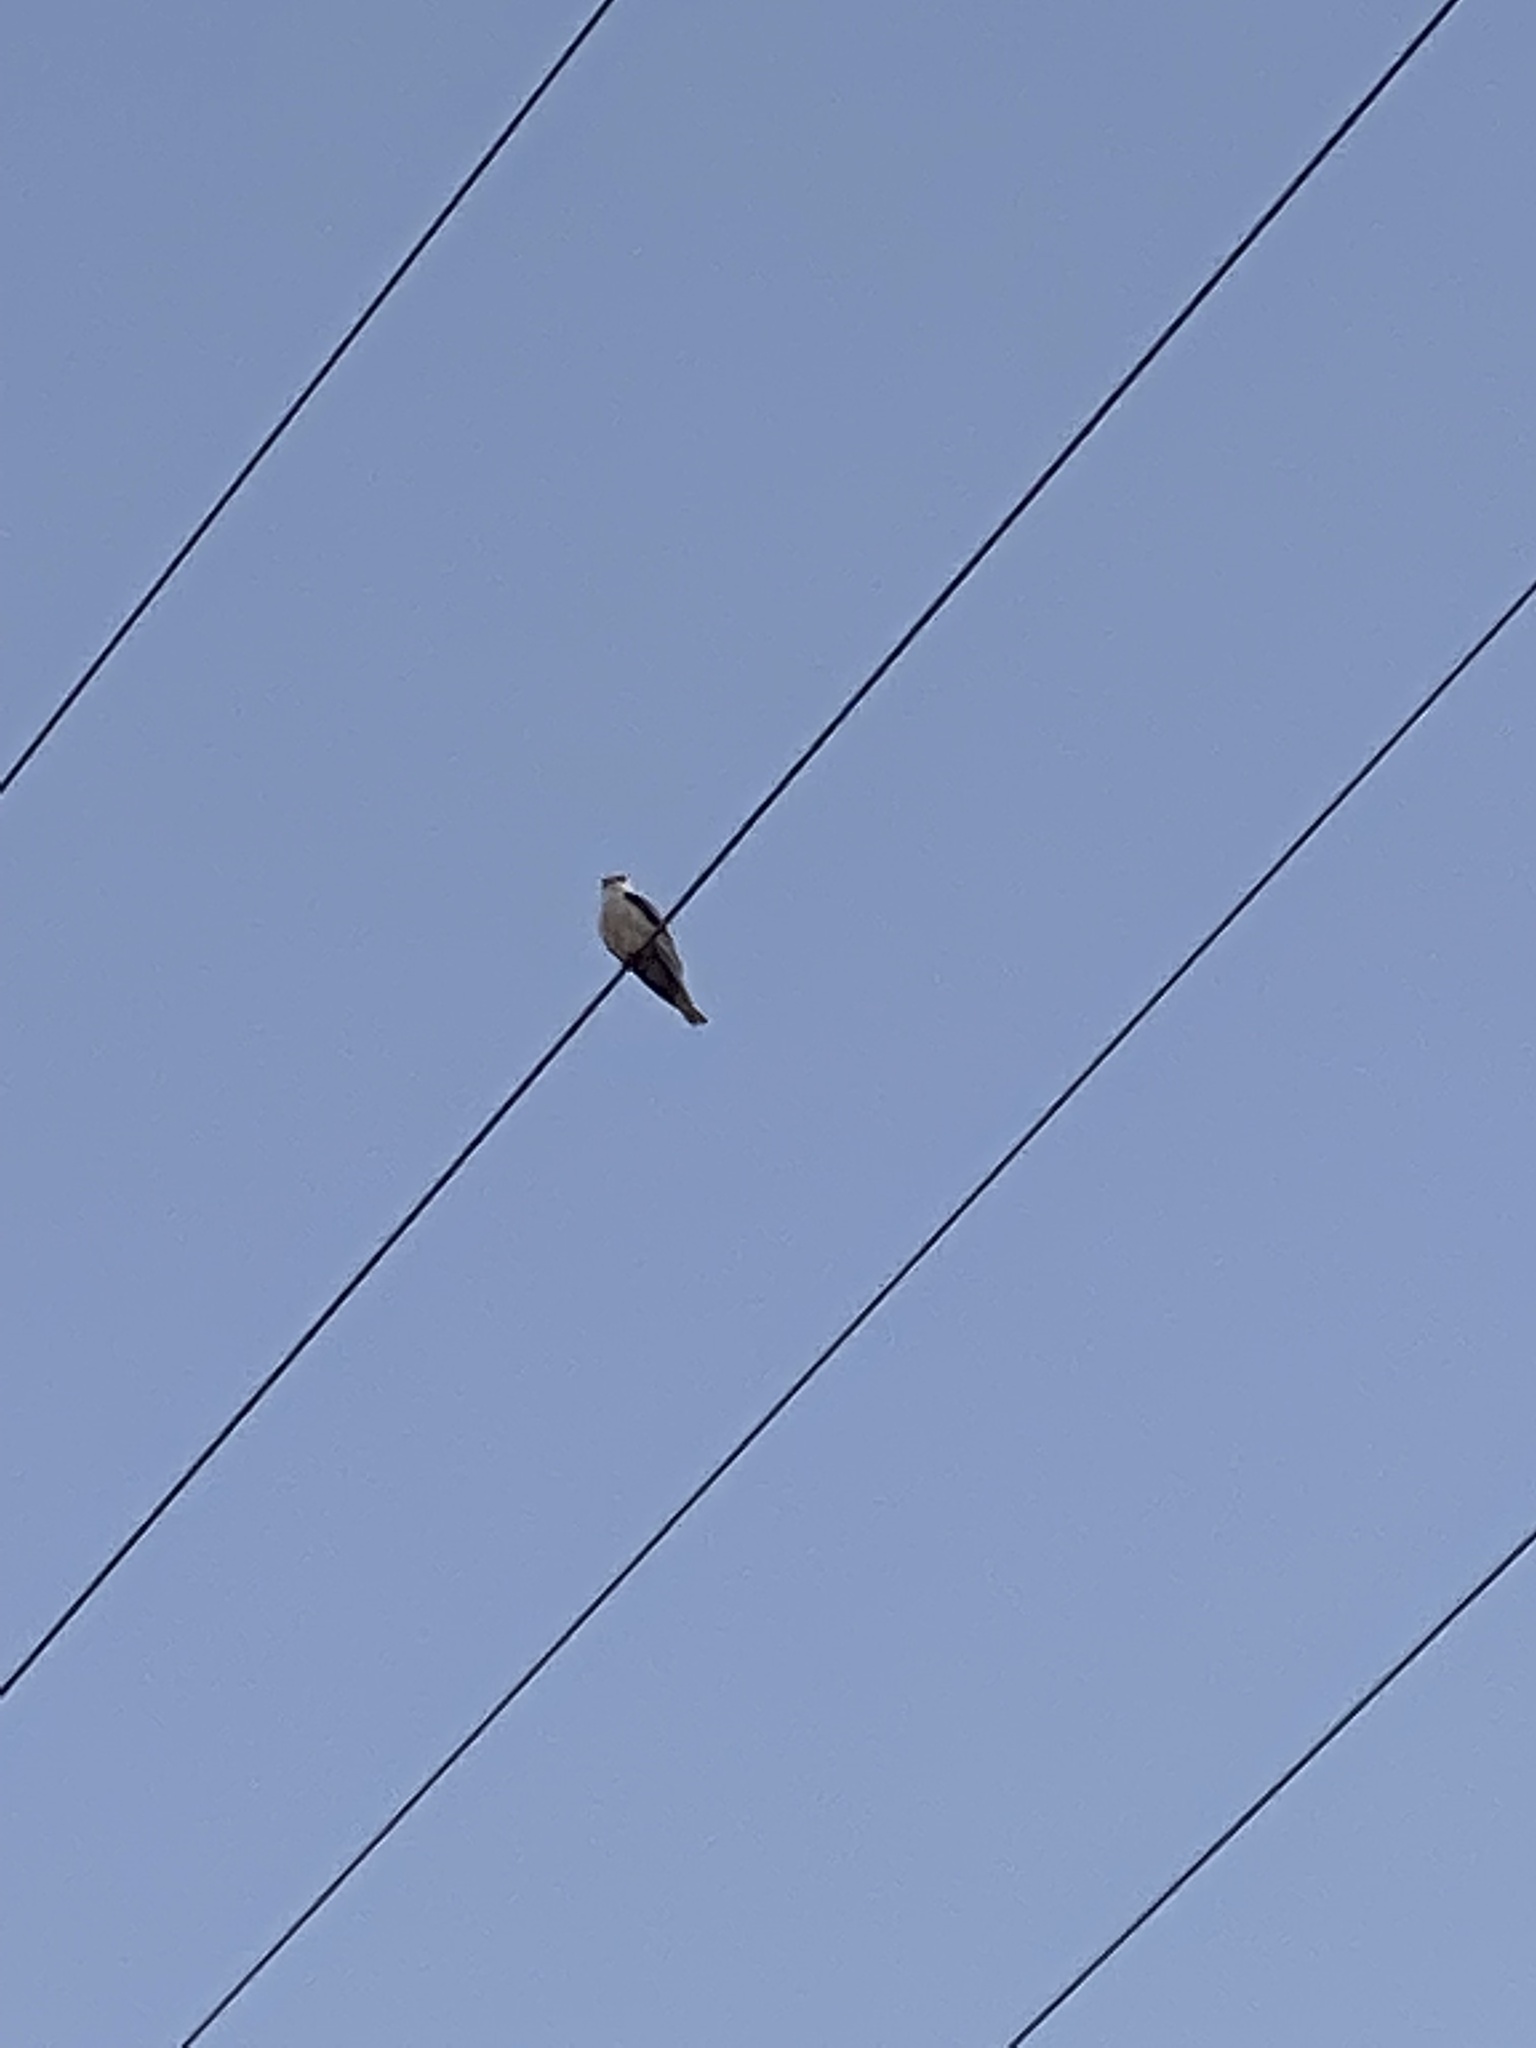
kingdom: Animalia
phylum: Chordata
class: Aves
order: Accipitriformes
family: Accipitridae
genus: Elanus
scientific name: Elanus leucurus
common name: White-tailed kite
